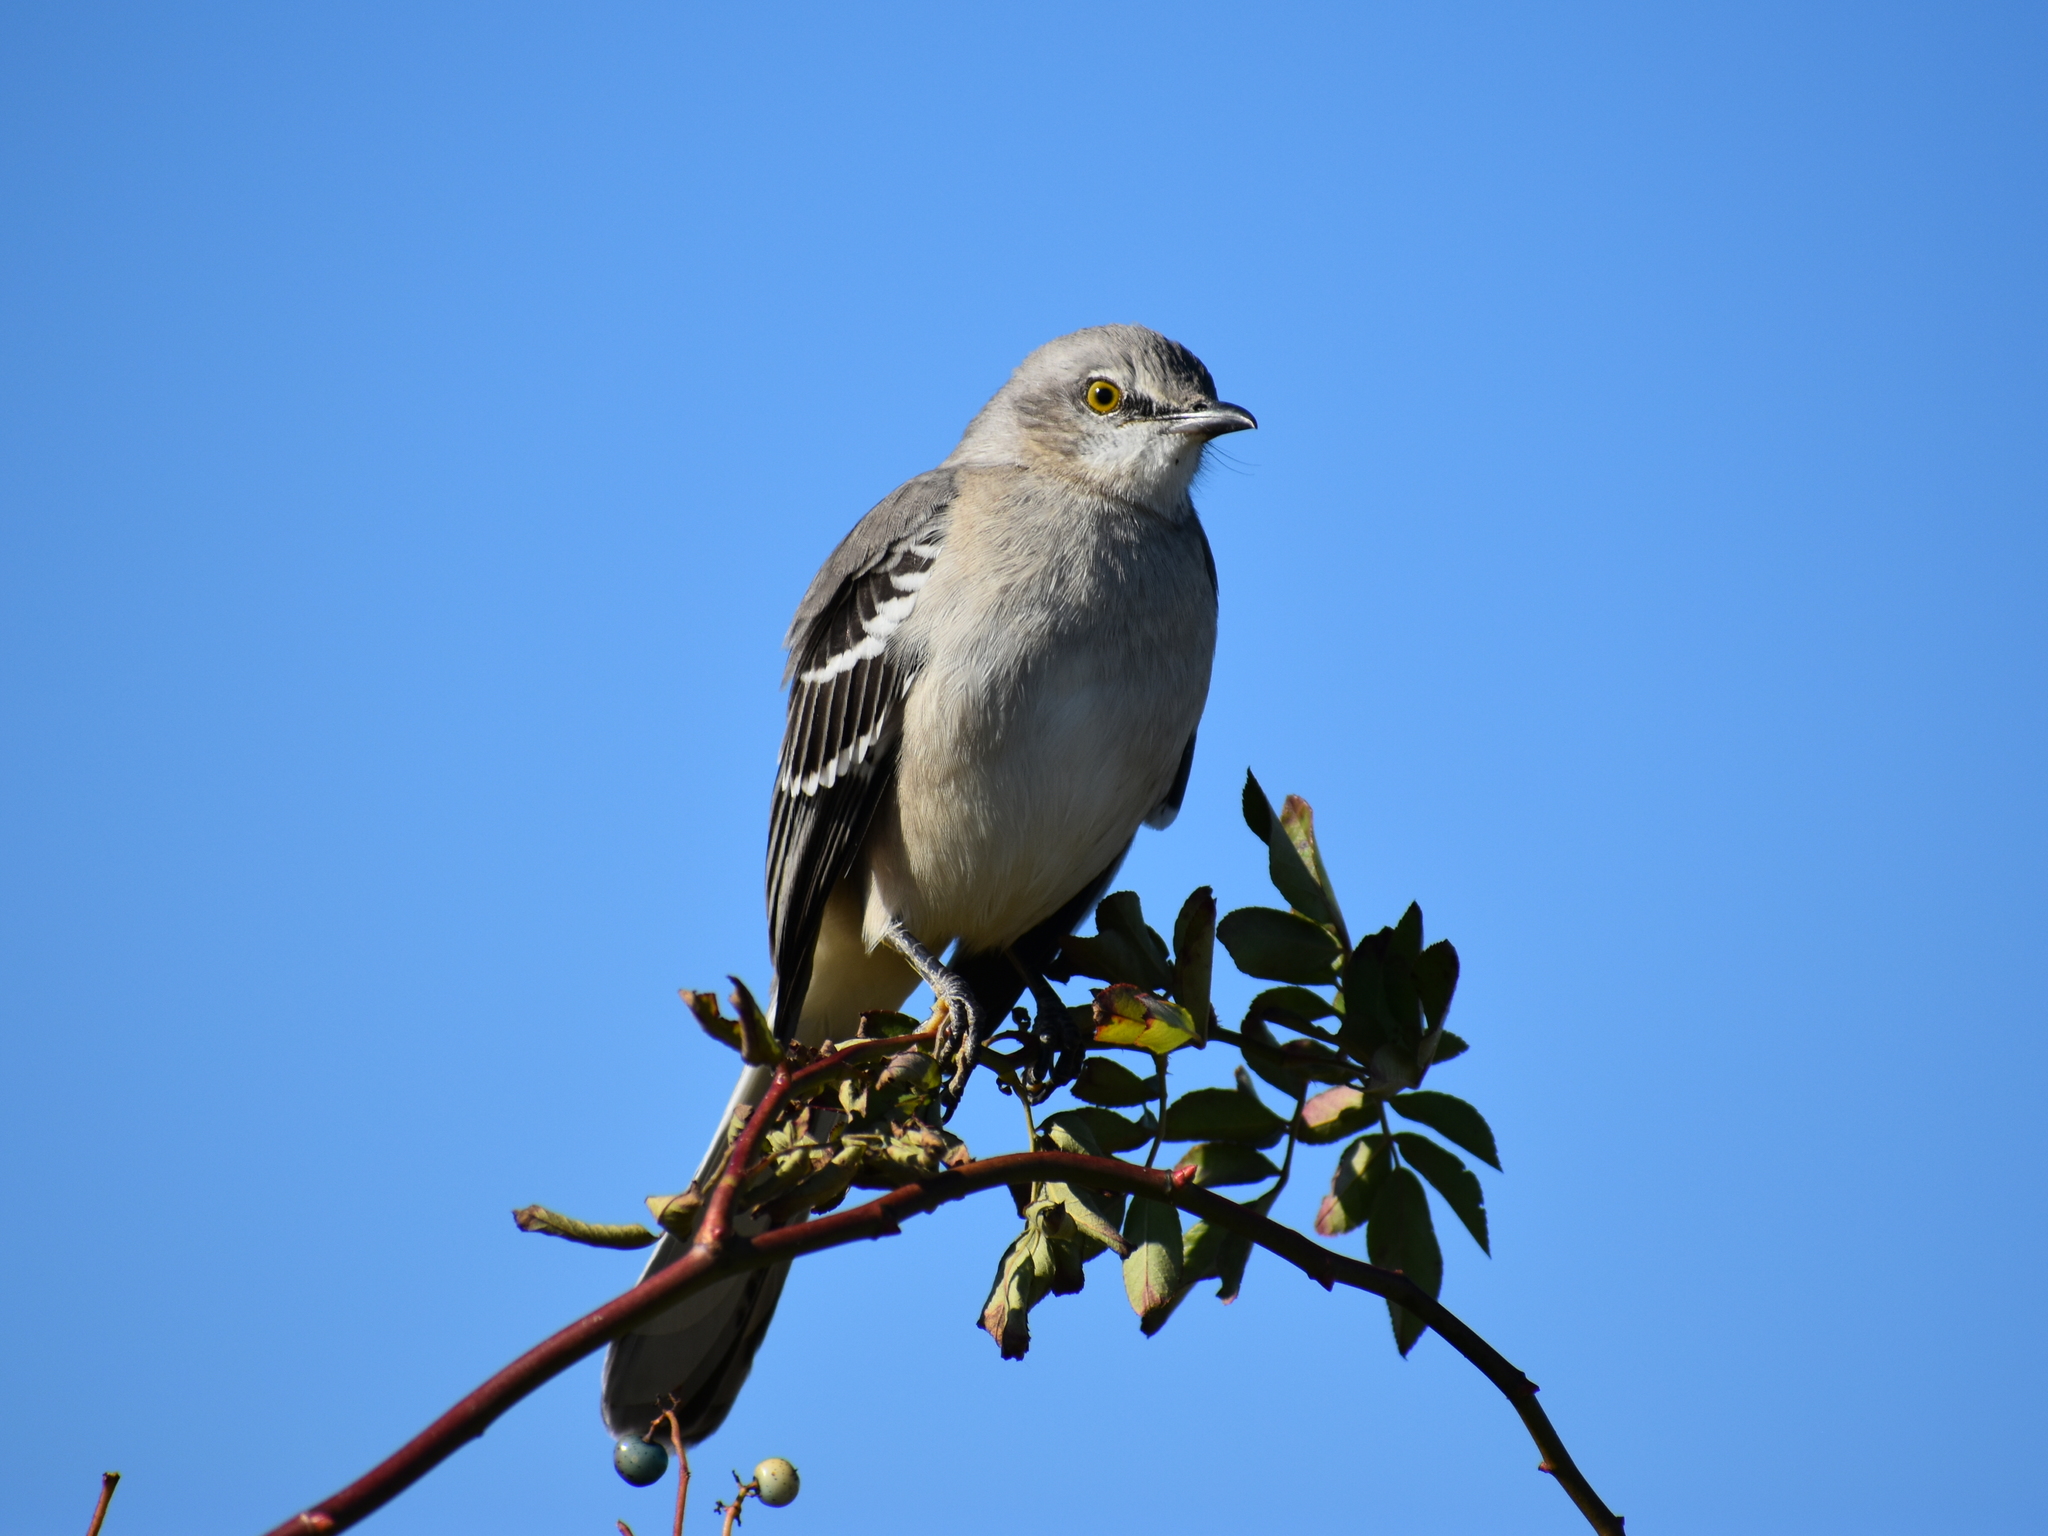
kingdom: Animalia
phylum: Chordata
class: Aves
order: Passeriformes
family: Mimidae
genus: Mimus
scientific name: Mimus polyglottos
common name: Northern mockingbird
